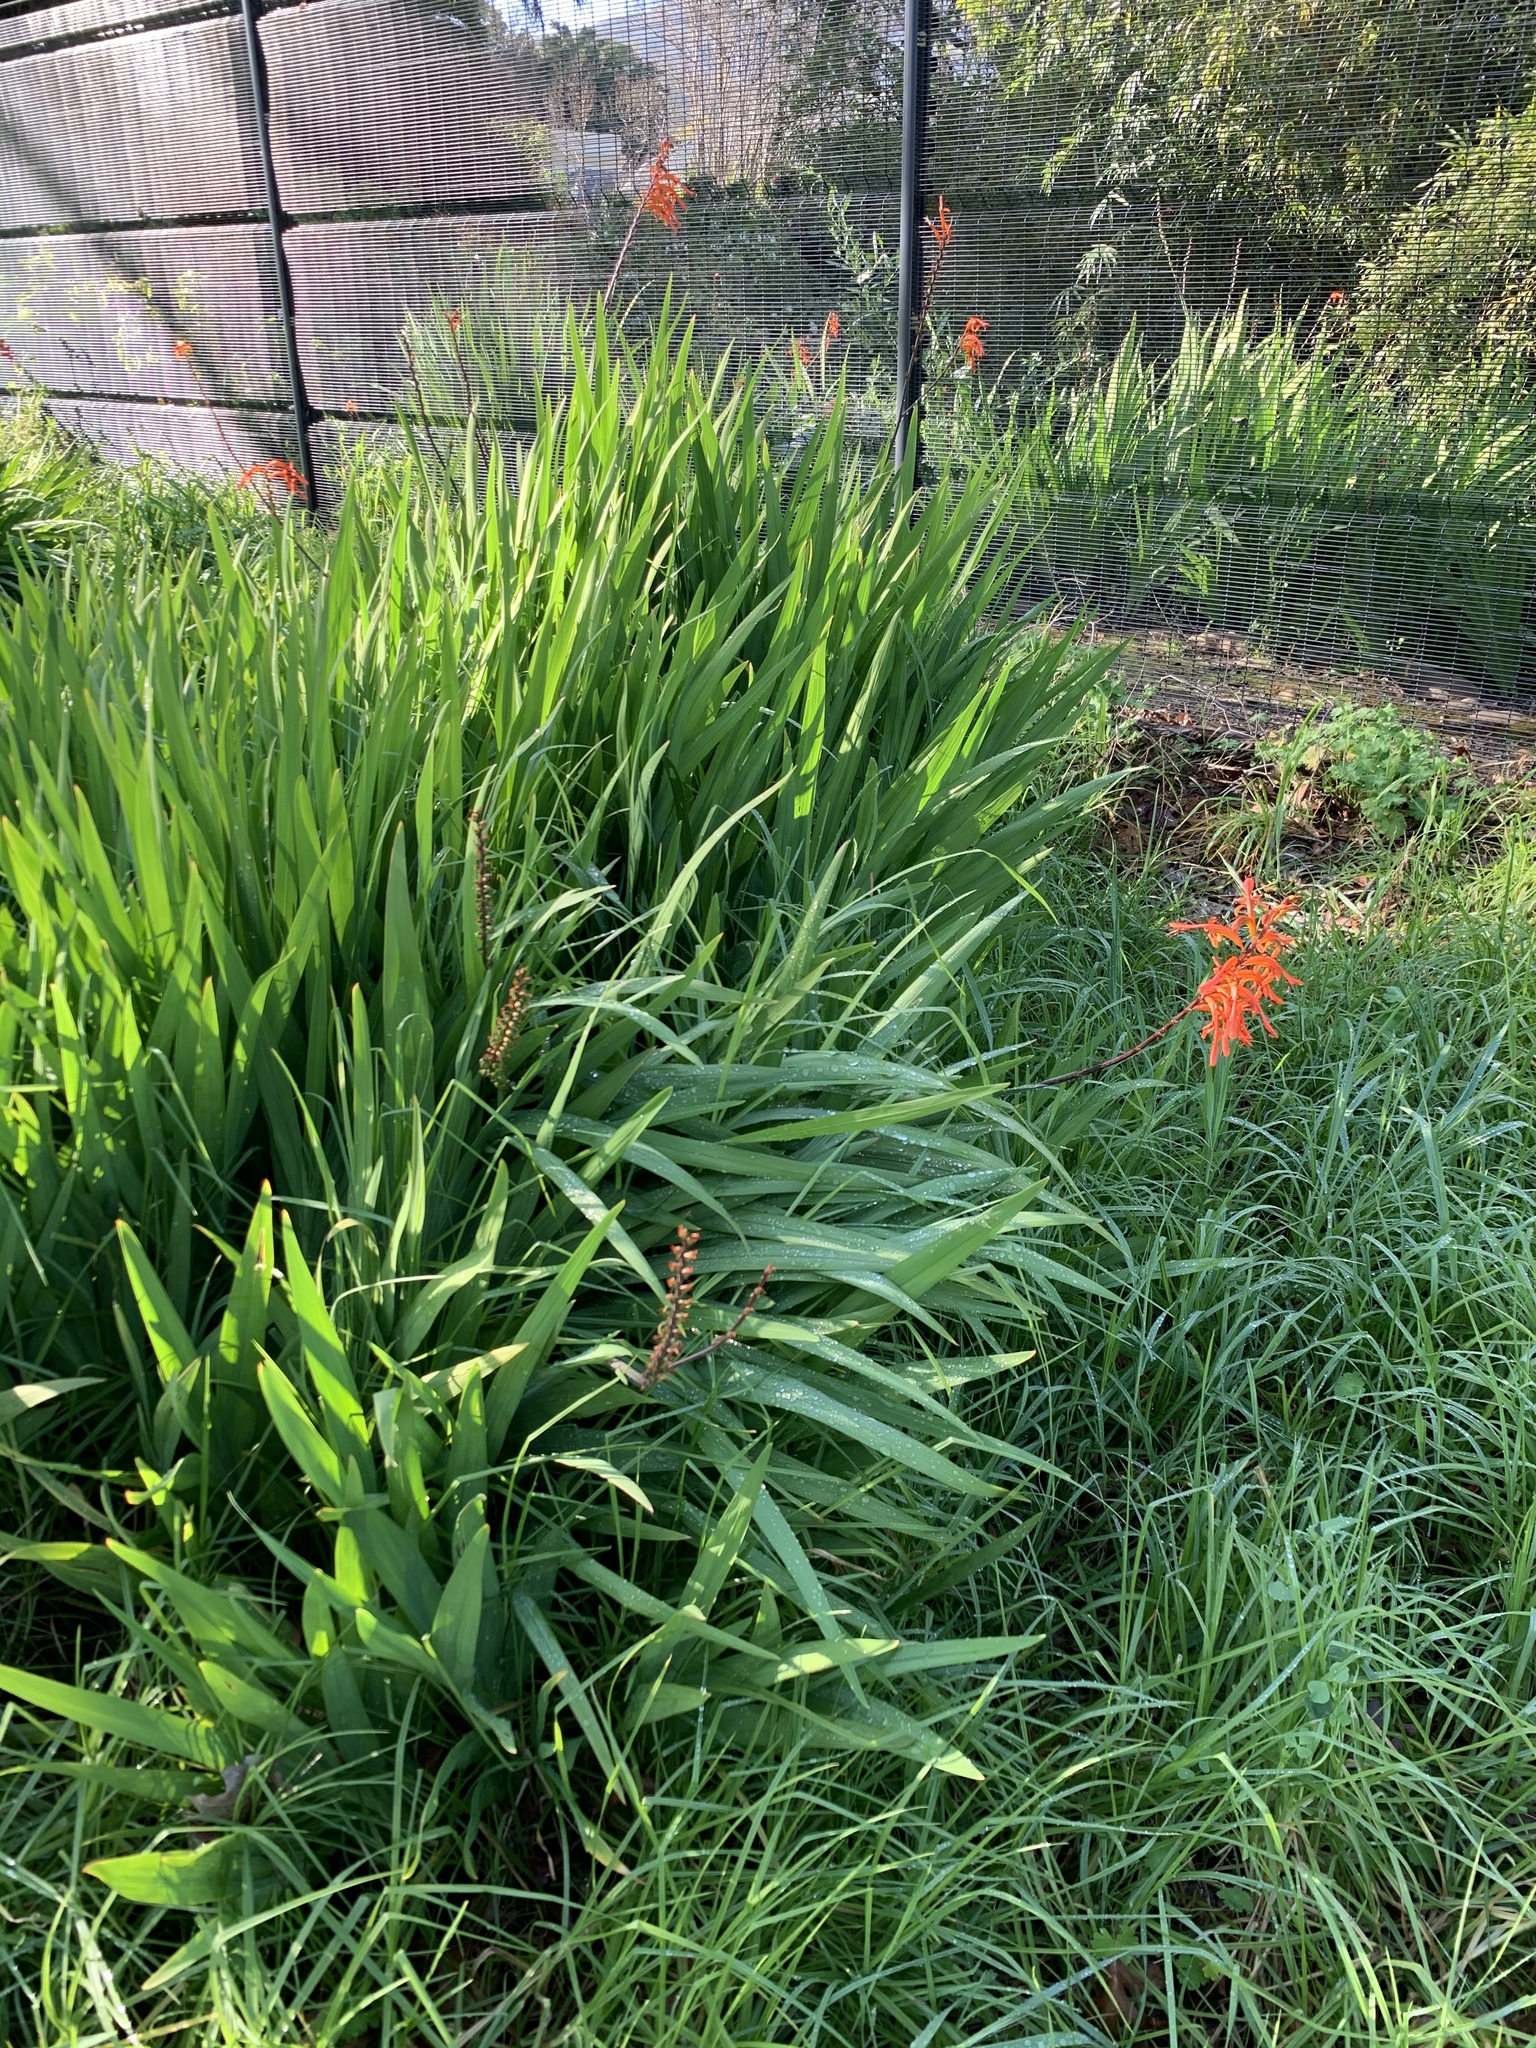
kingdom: Plantae
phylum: Tracheophyta
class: Liliopsida
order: Asparagales
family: Iridaceae
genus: Chasmanthe
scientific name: Chasmanthe floribunda
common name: African cornflag
